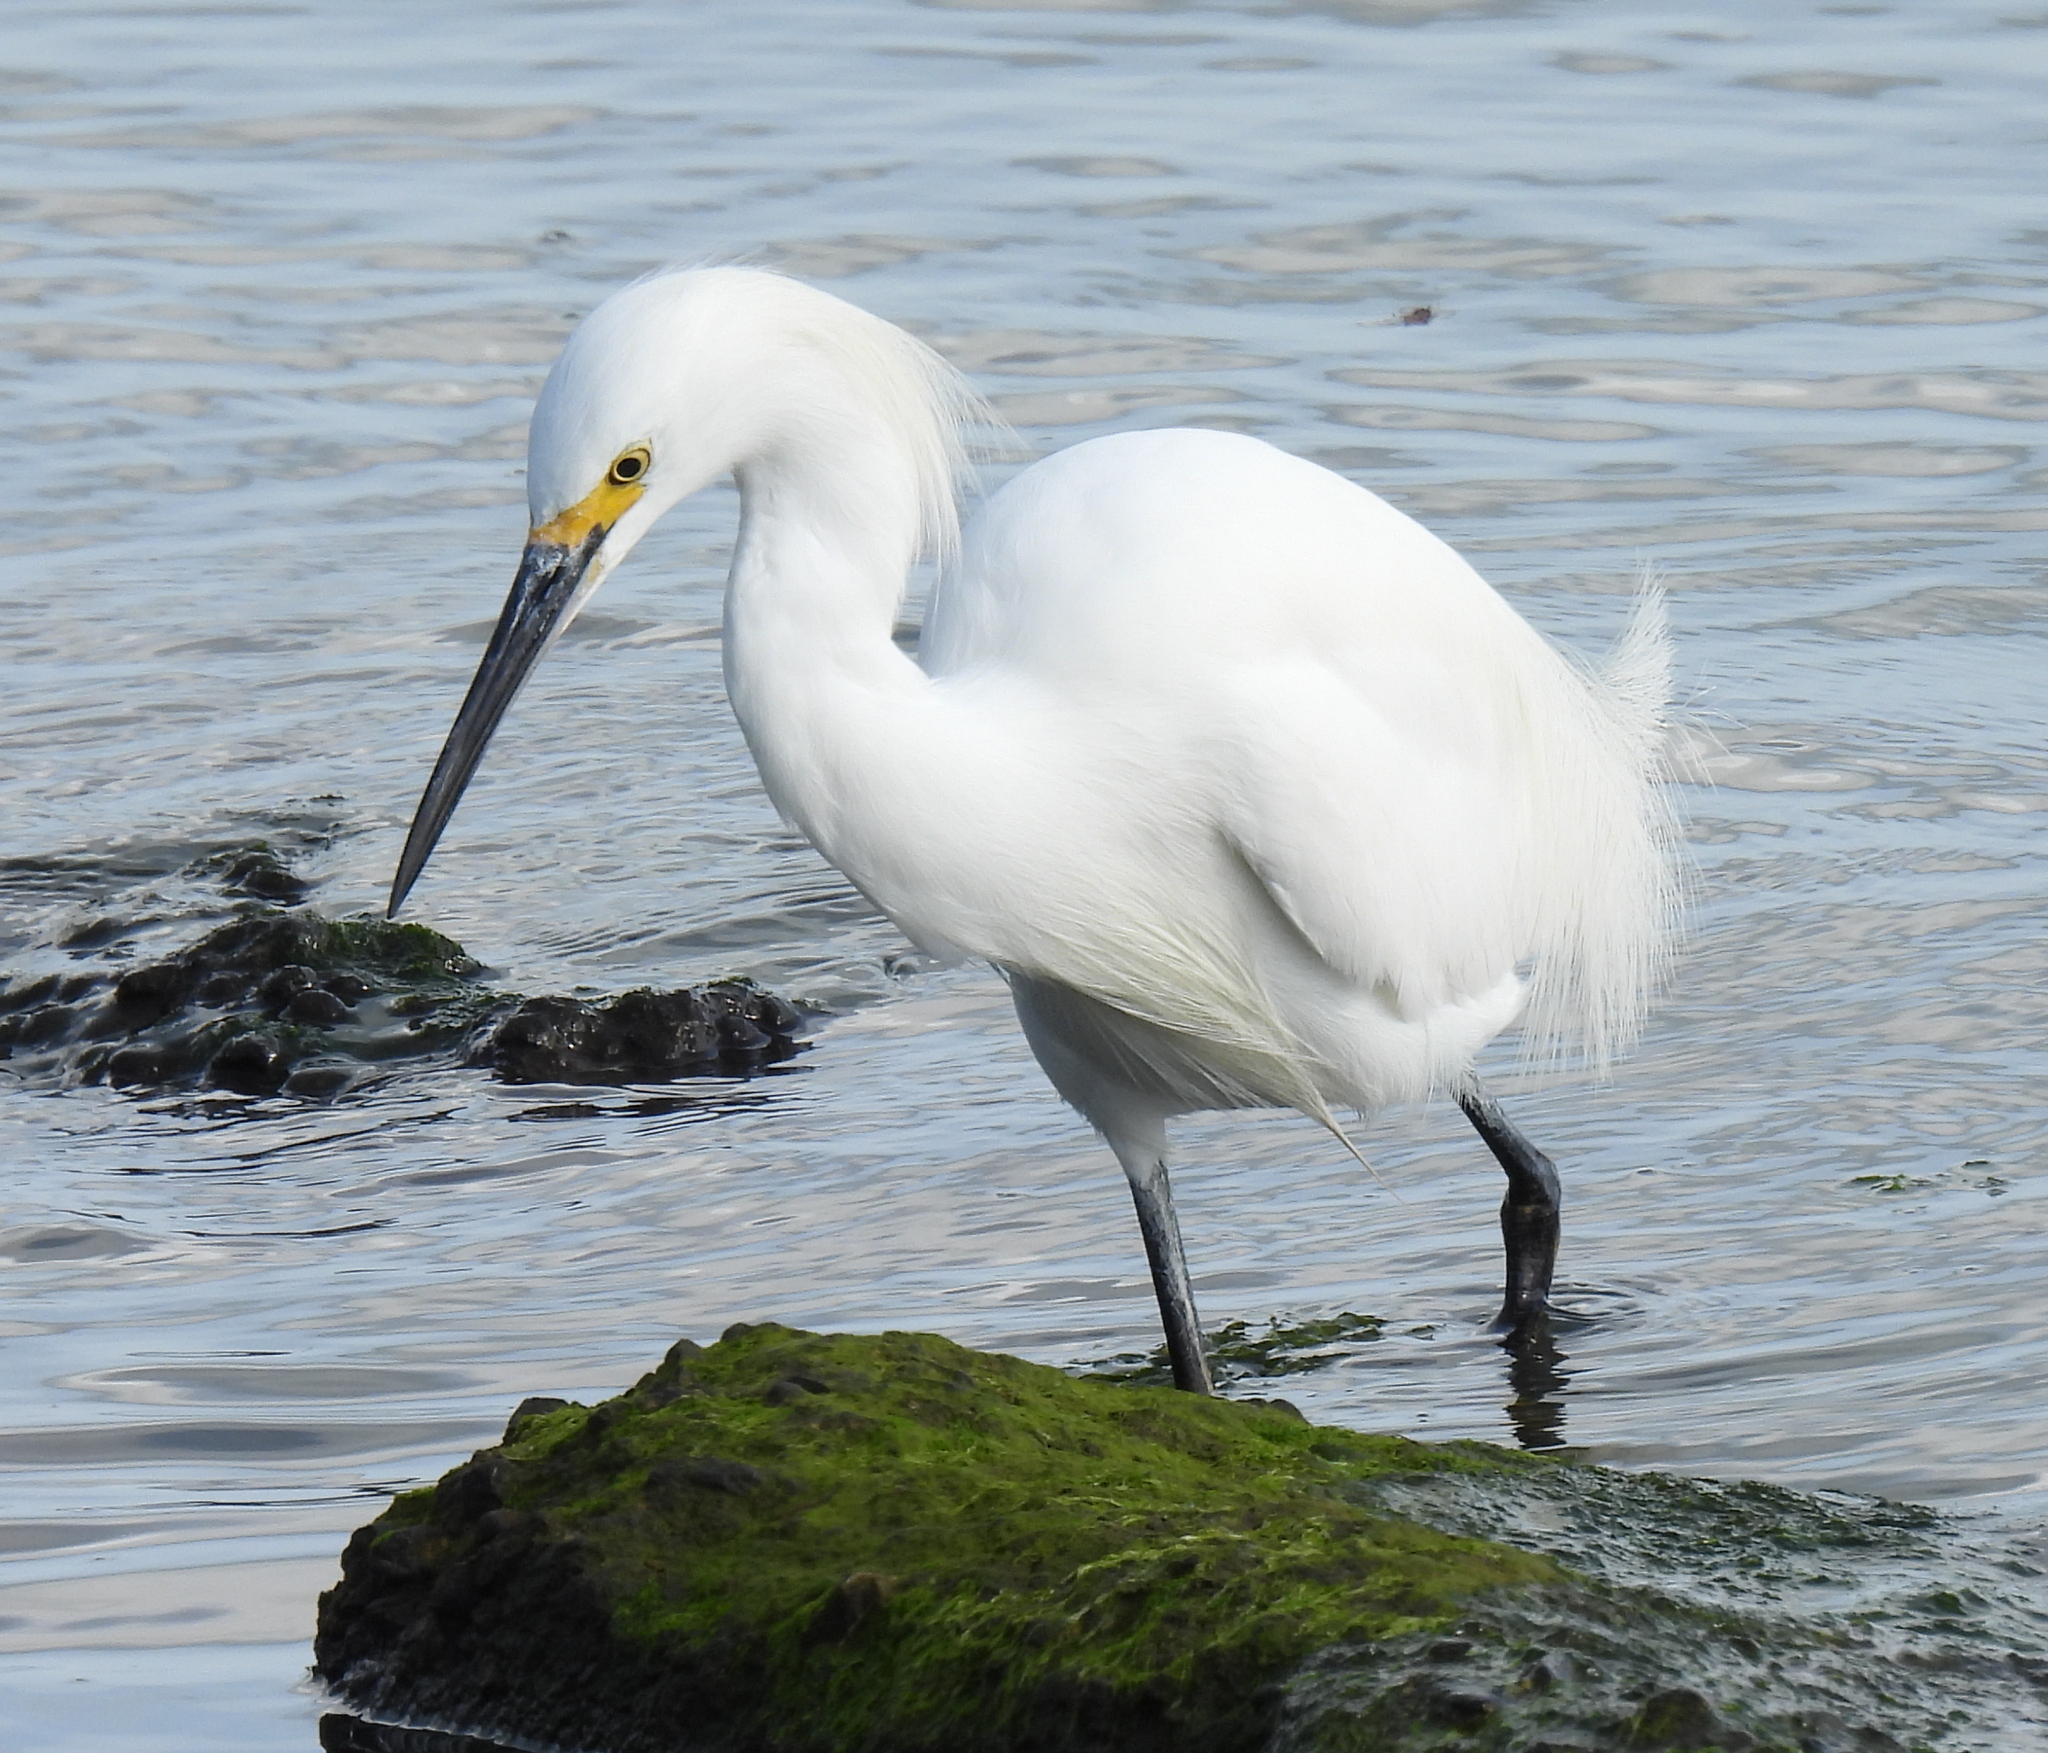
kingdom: Animalia
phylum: Chordata
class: Aves
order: Pelecaniformes
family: Ardeidae
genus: Egretta
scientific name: Egretta thula
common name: Snowy egret
